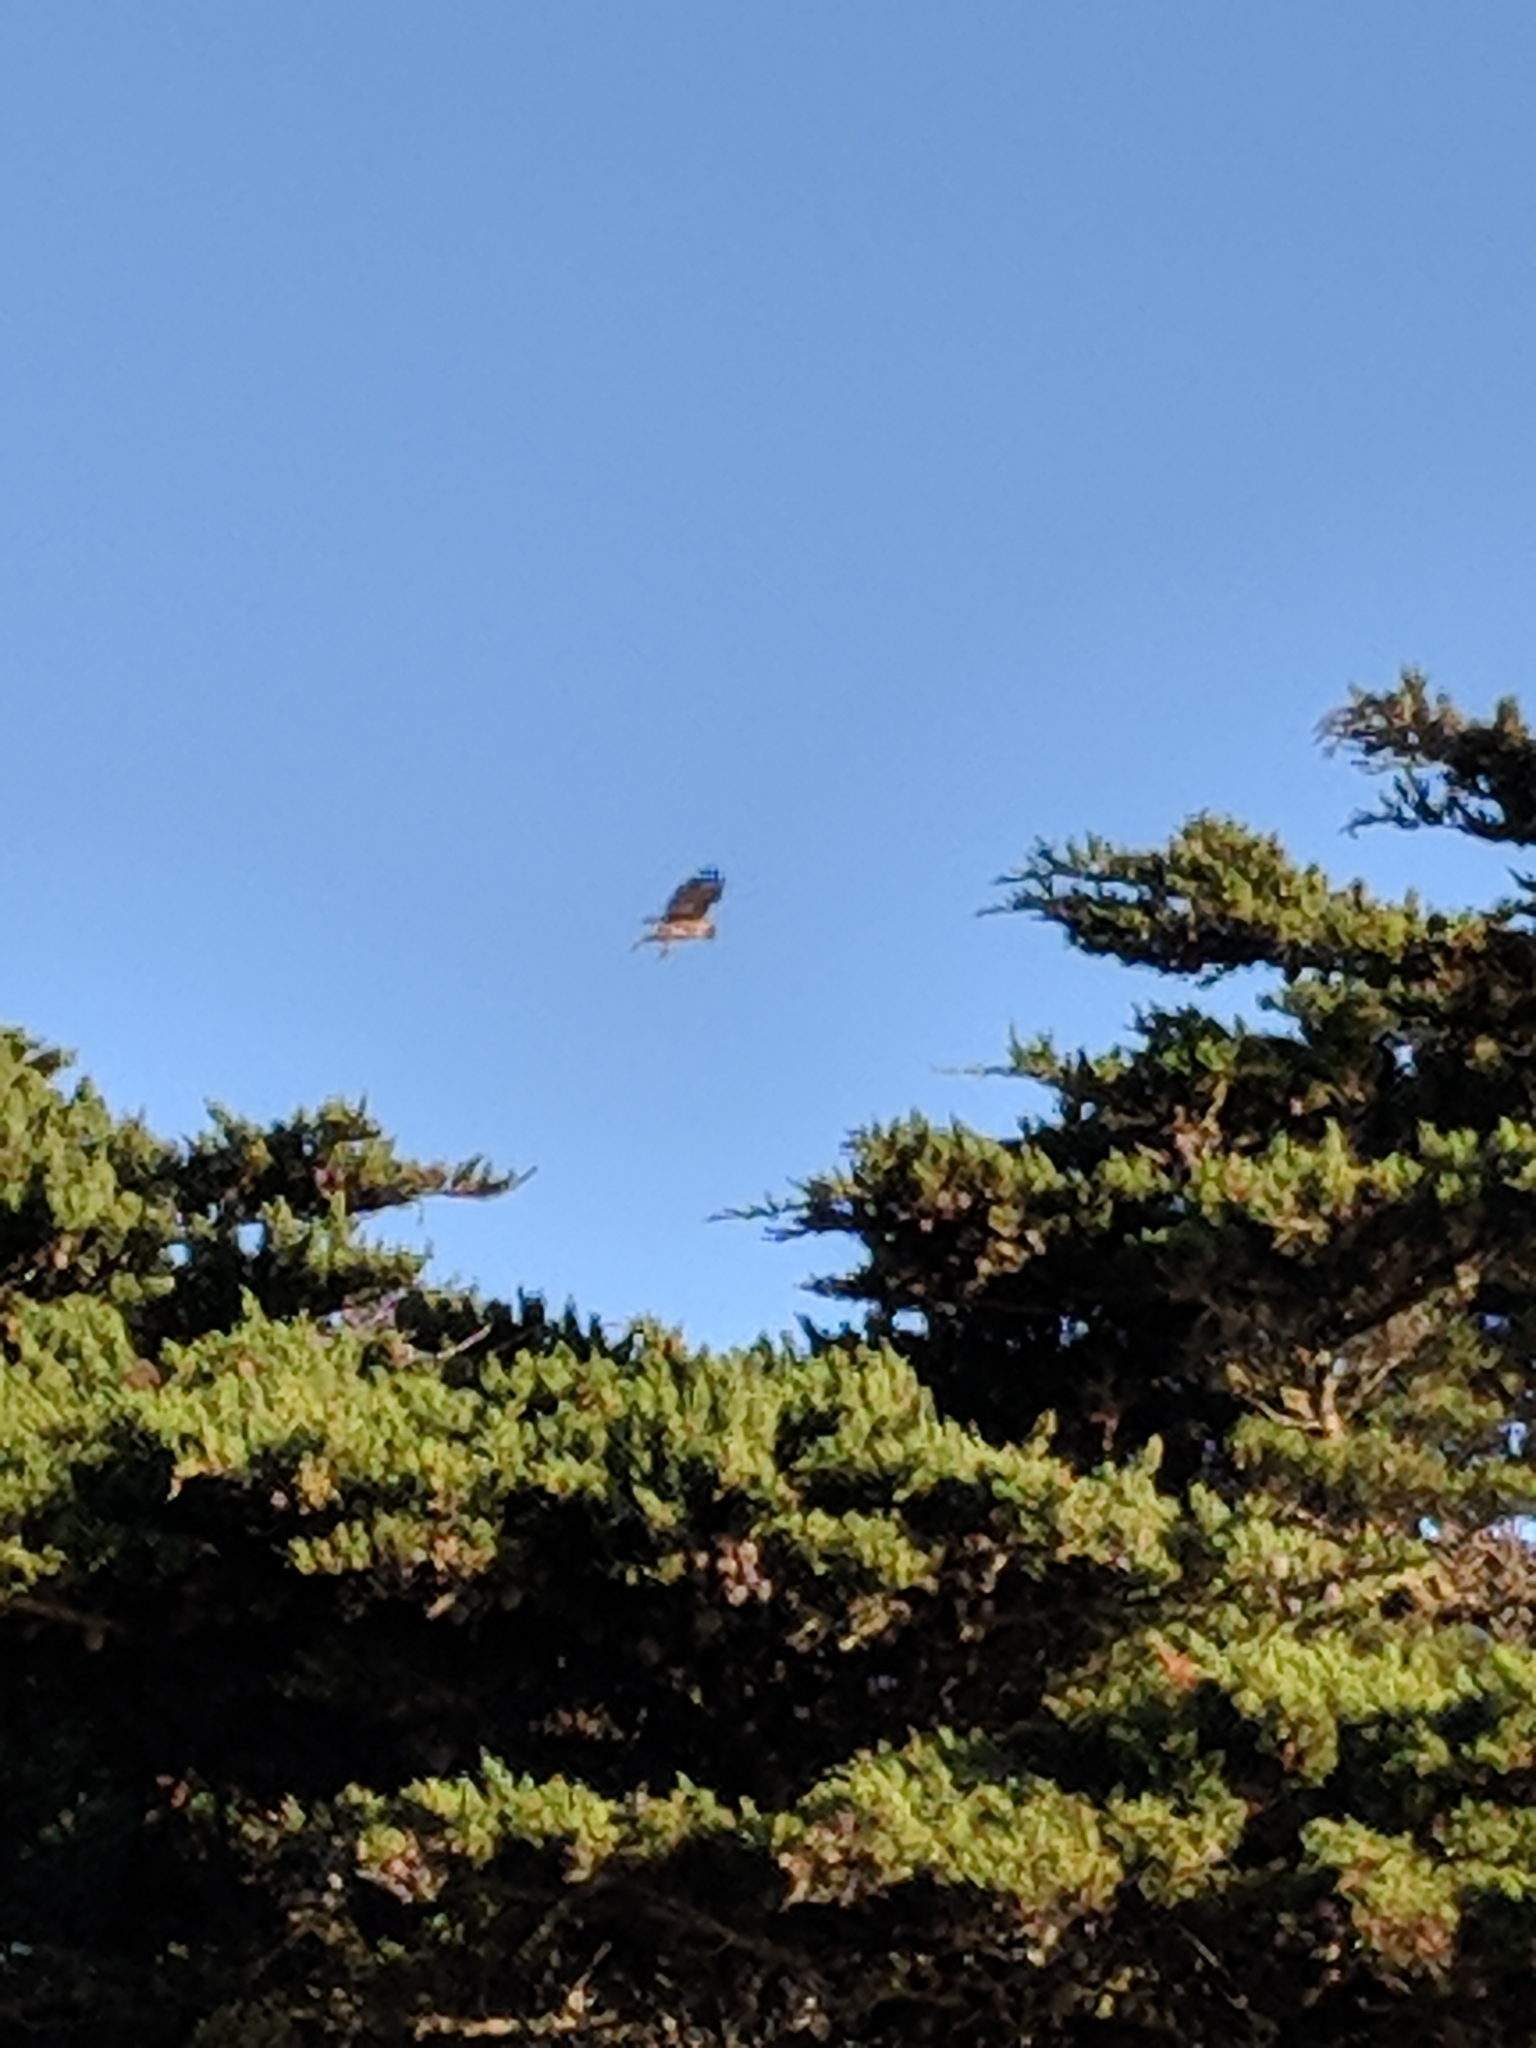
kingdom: Animalia
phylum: Chordata
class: Aves
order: Accipitriformes
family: Accipitridae
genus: Buteo
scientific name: Buteo jamaicensis
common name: Red-tailed hawk
